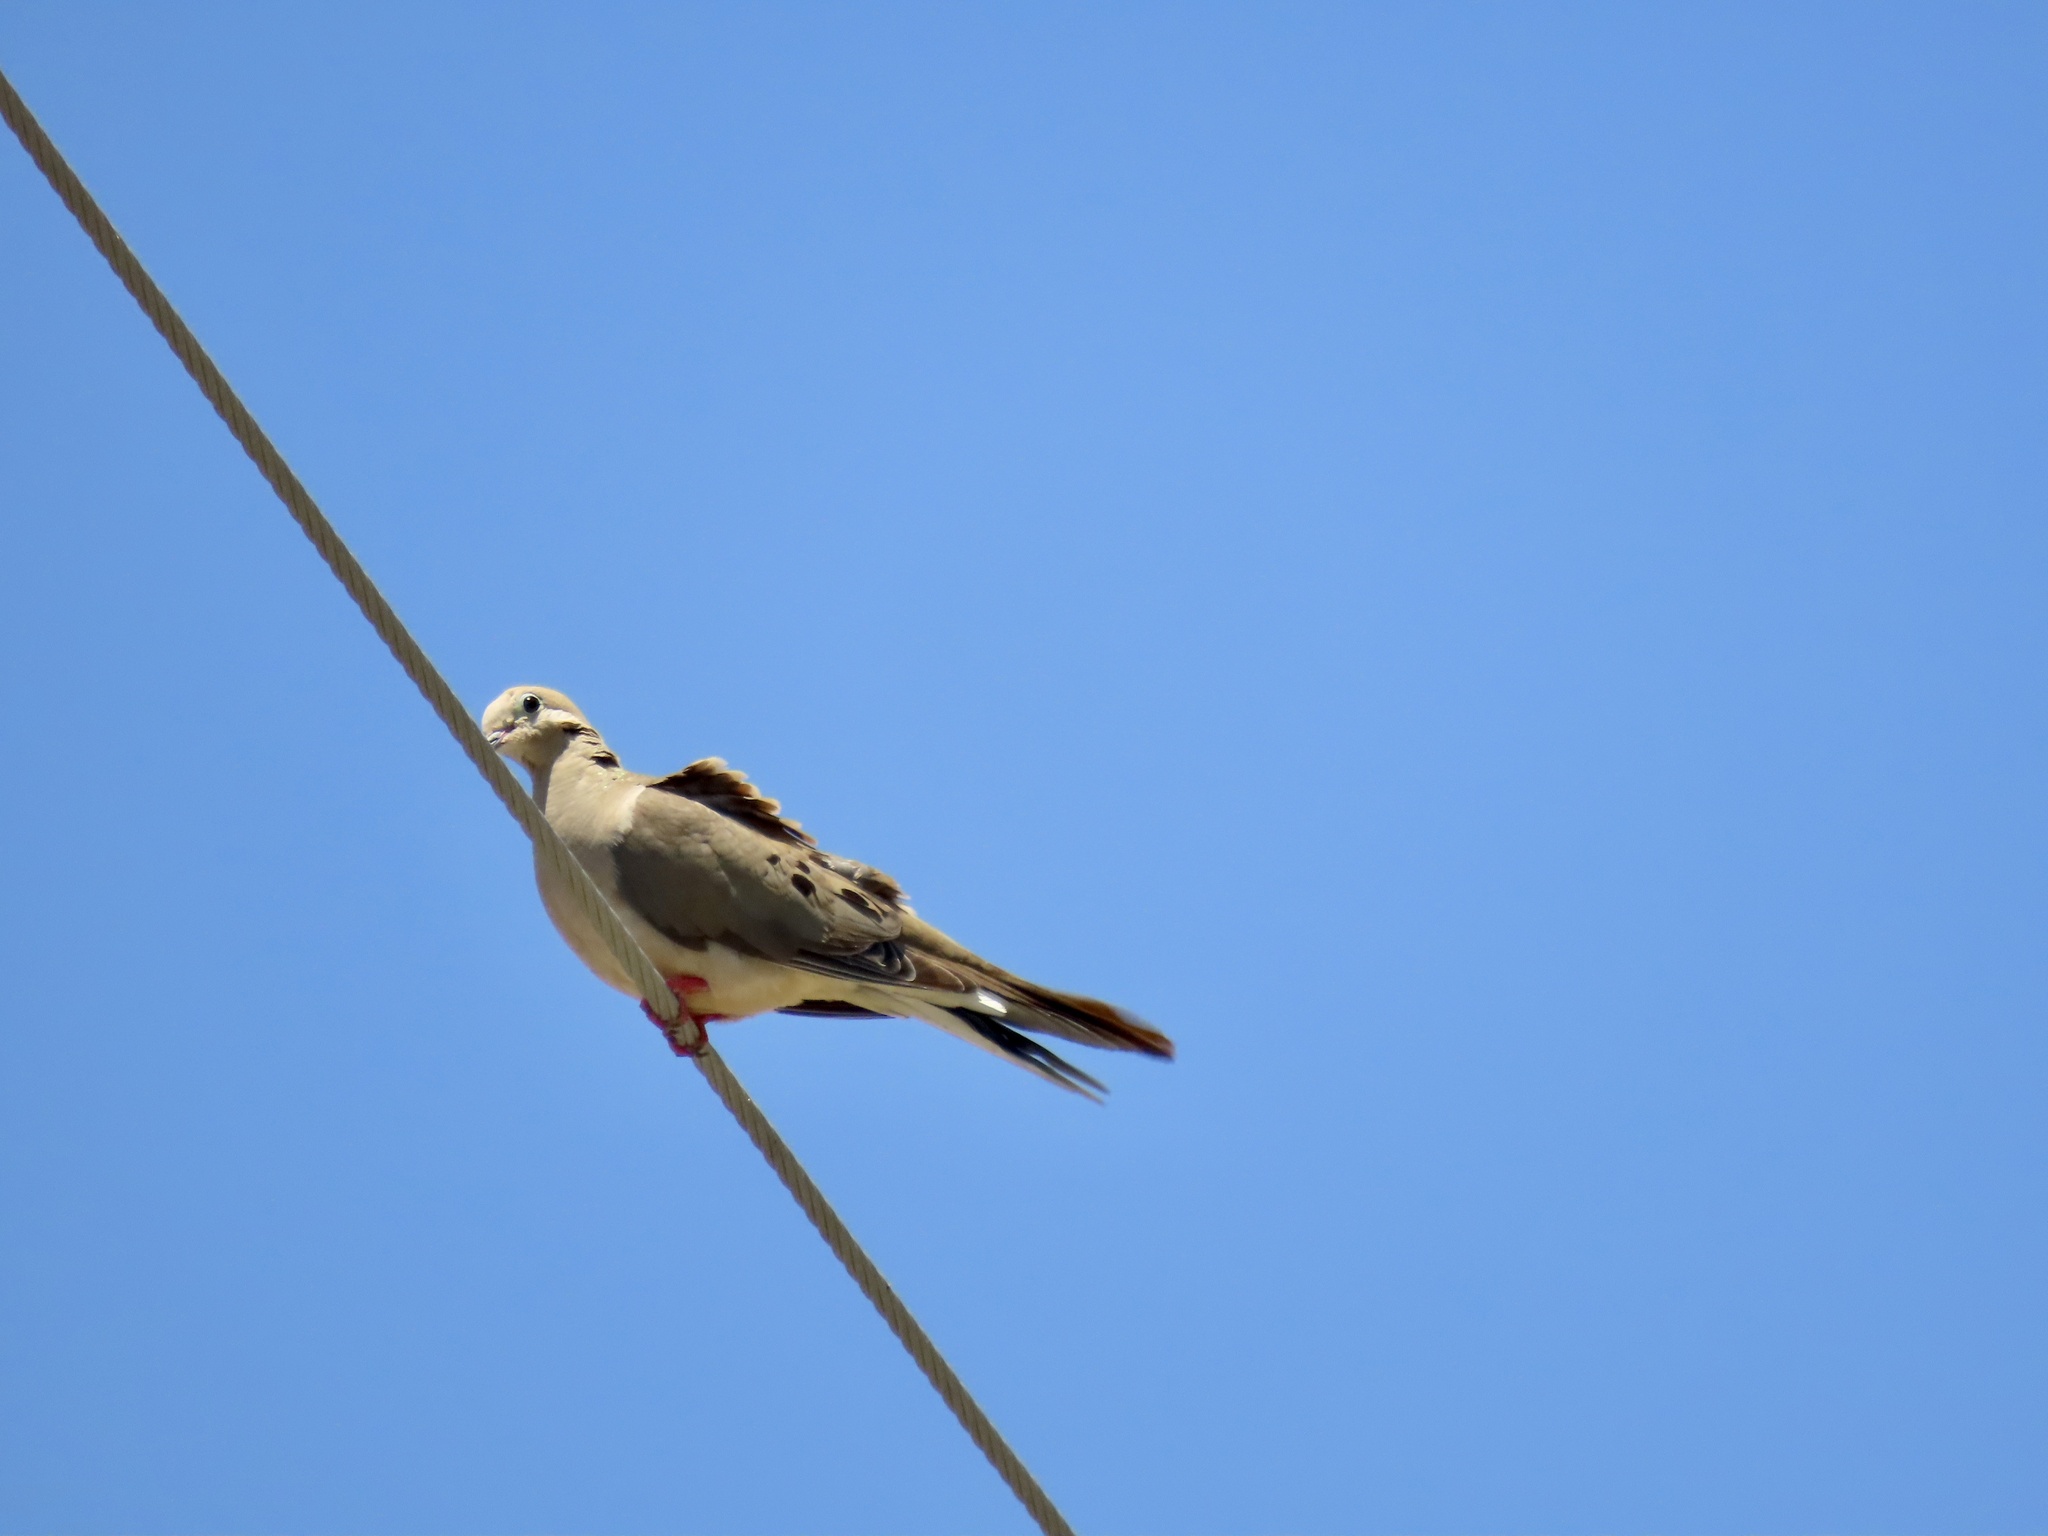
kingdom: Animalia
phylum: Chordata
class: Aves
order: Columbiformes
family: Columbidae
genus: Zenaida
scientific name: Zenaida macroura
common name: Mourning dove
